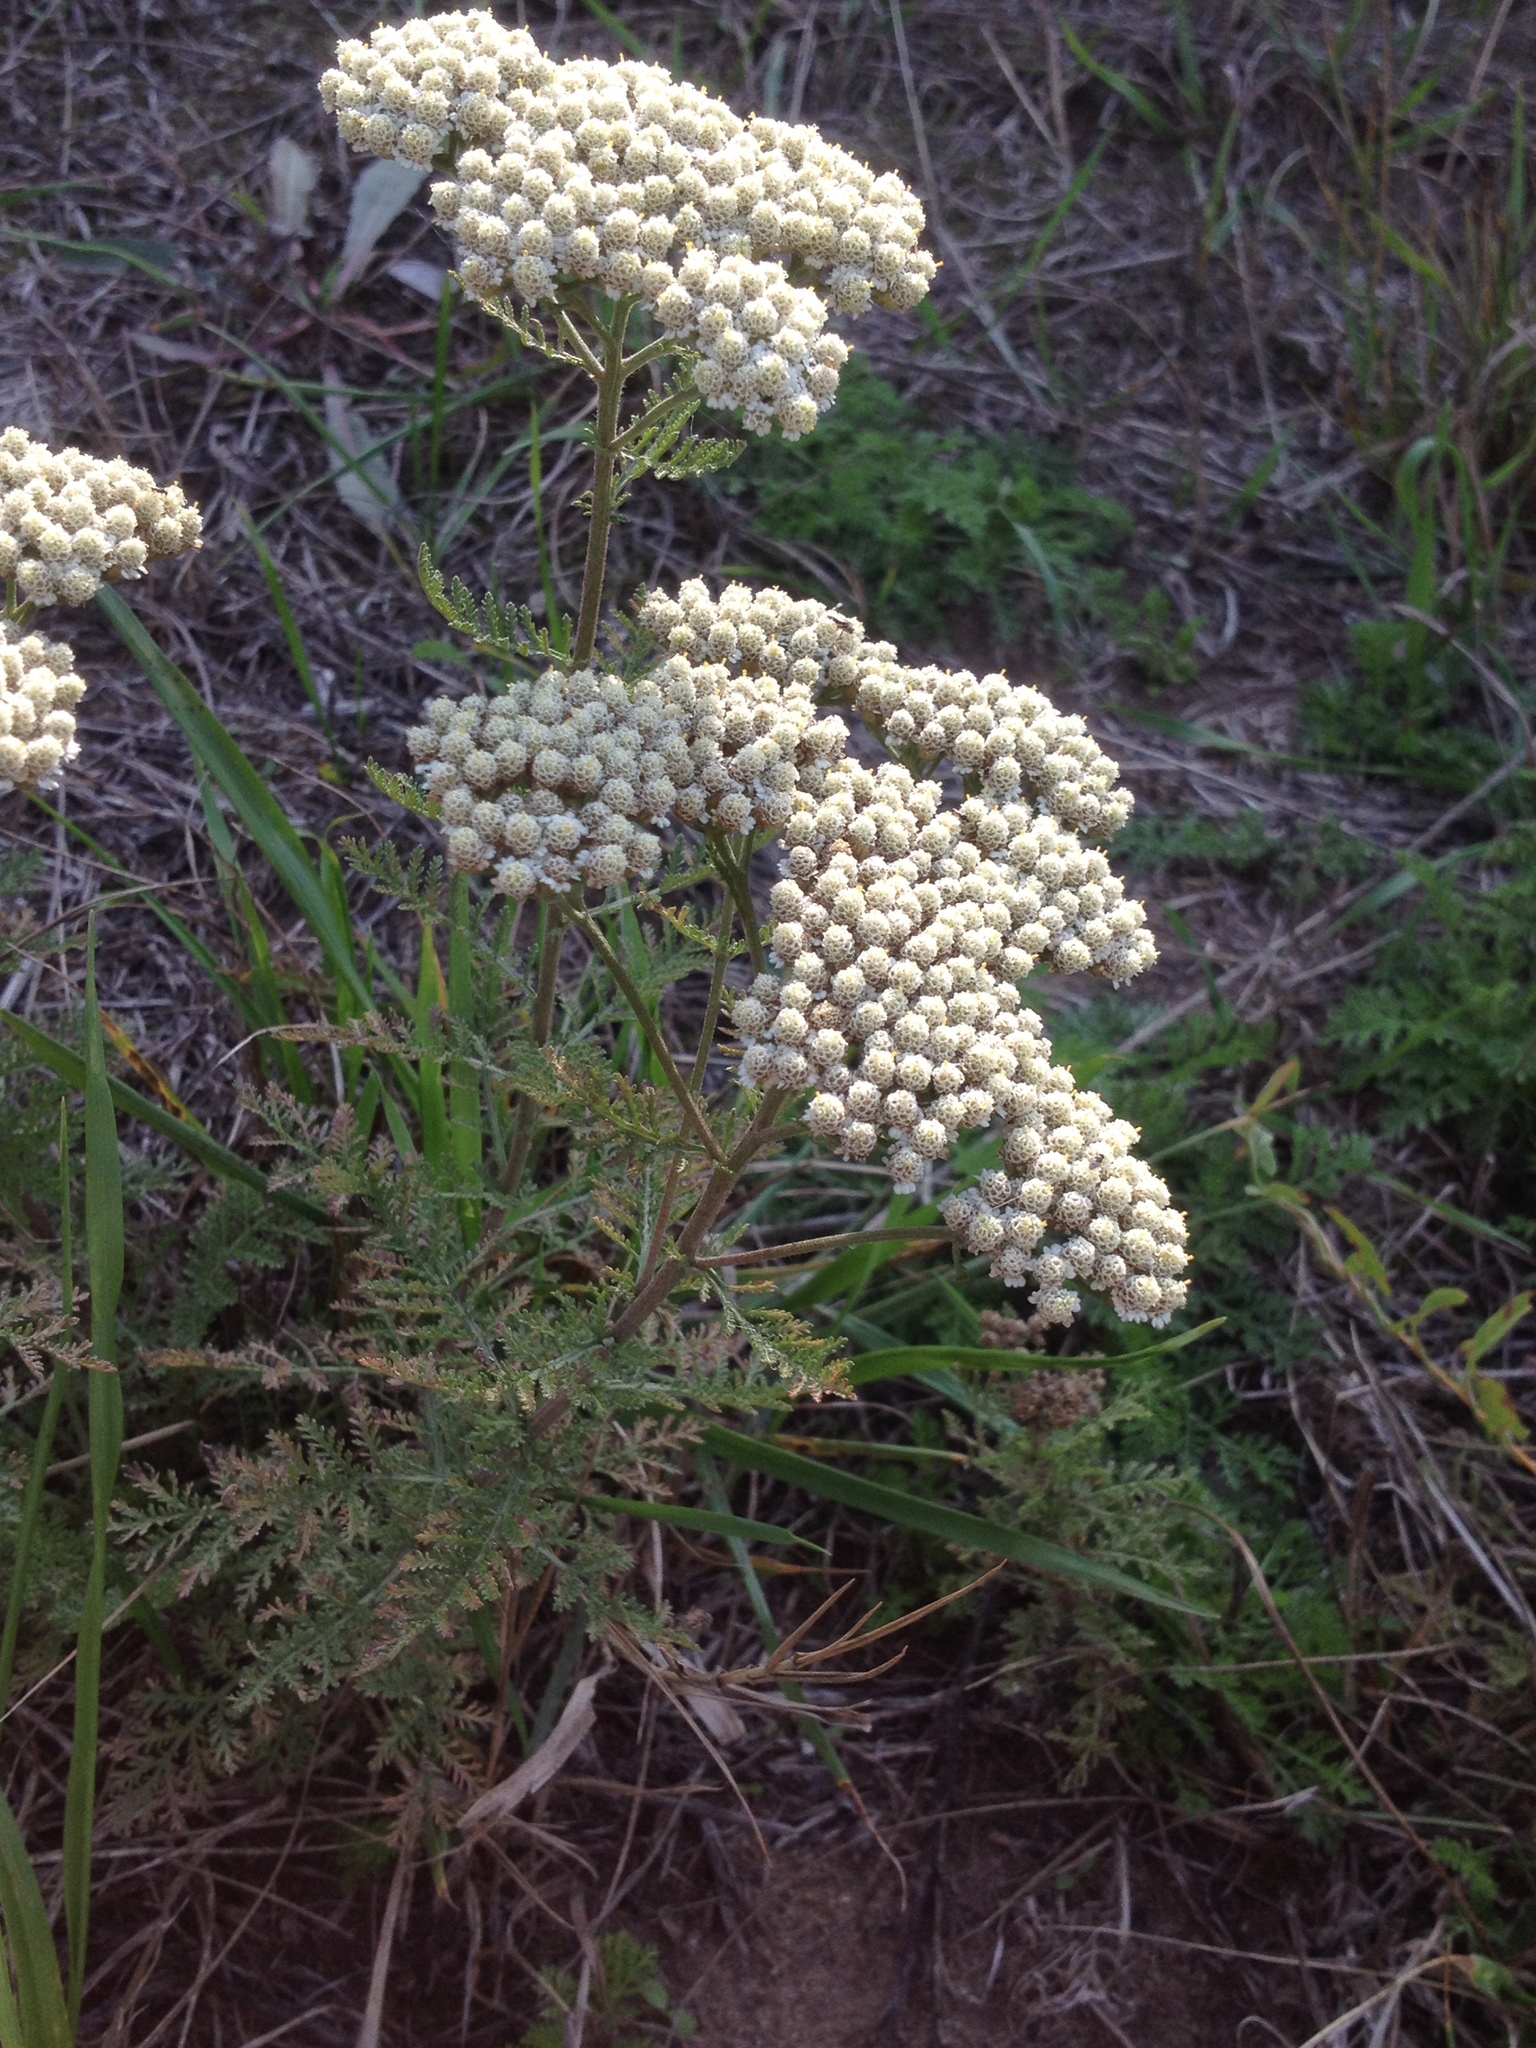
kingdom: Plantae
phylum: Tracheophyta
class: Magnoliopsida
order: Asterales
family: Asteraceae
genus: Achillea
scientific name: Achillea nobilis
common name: Noble yarrow
